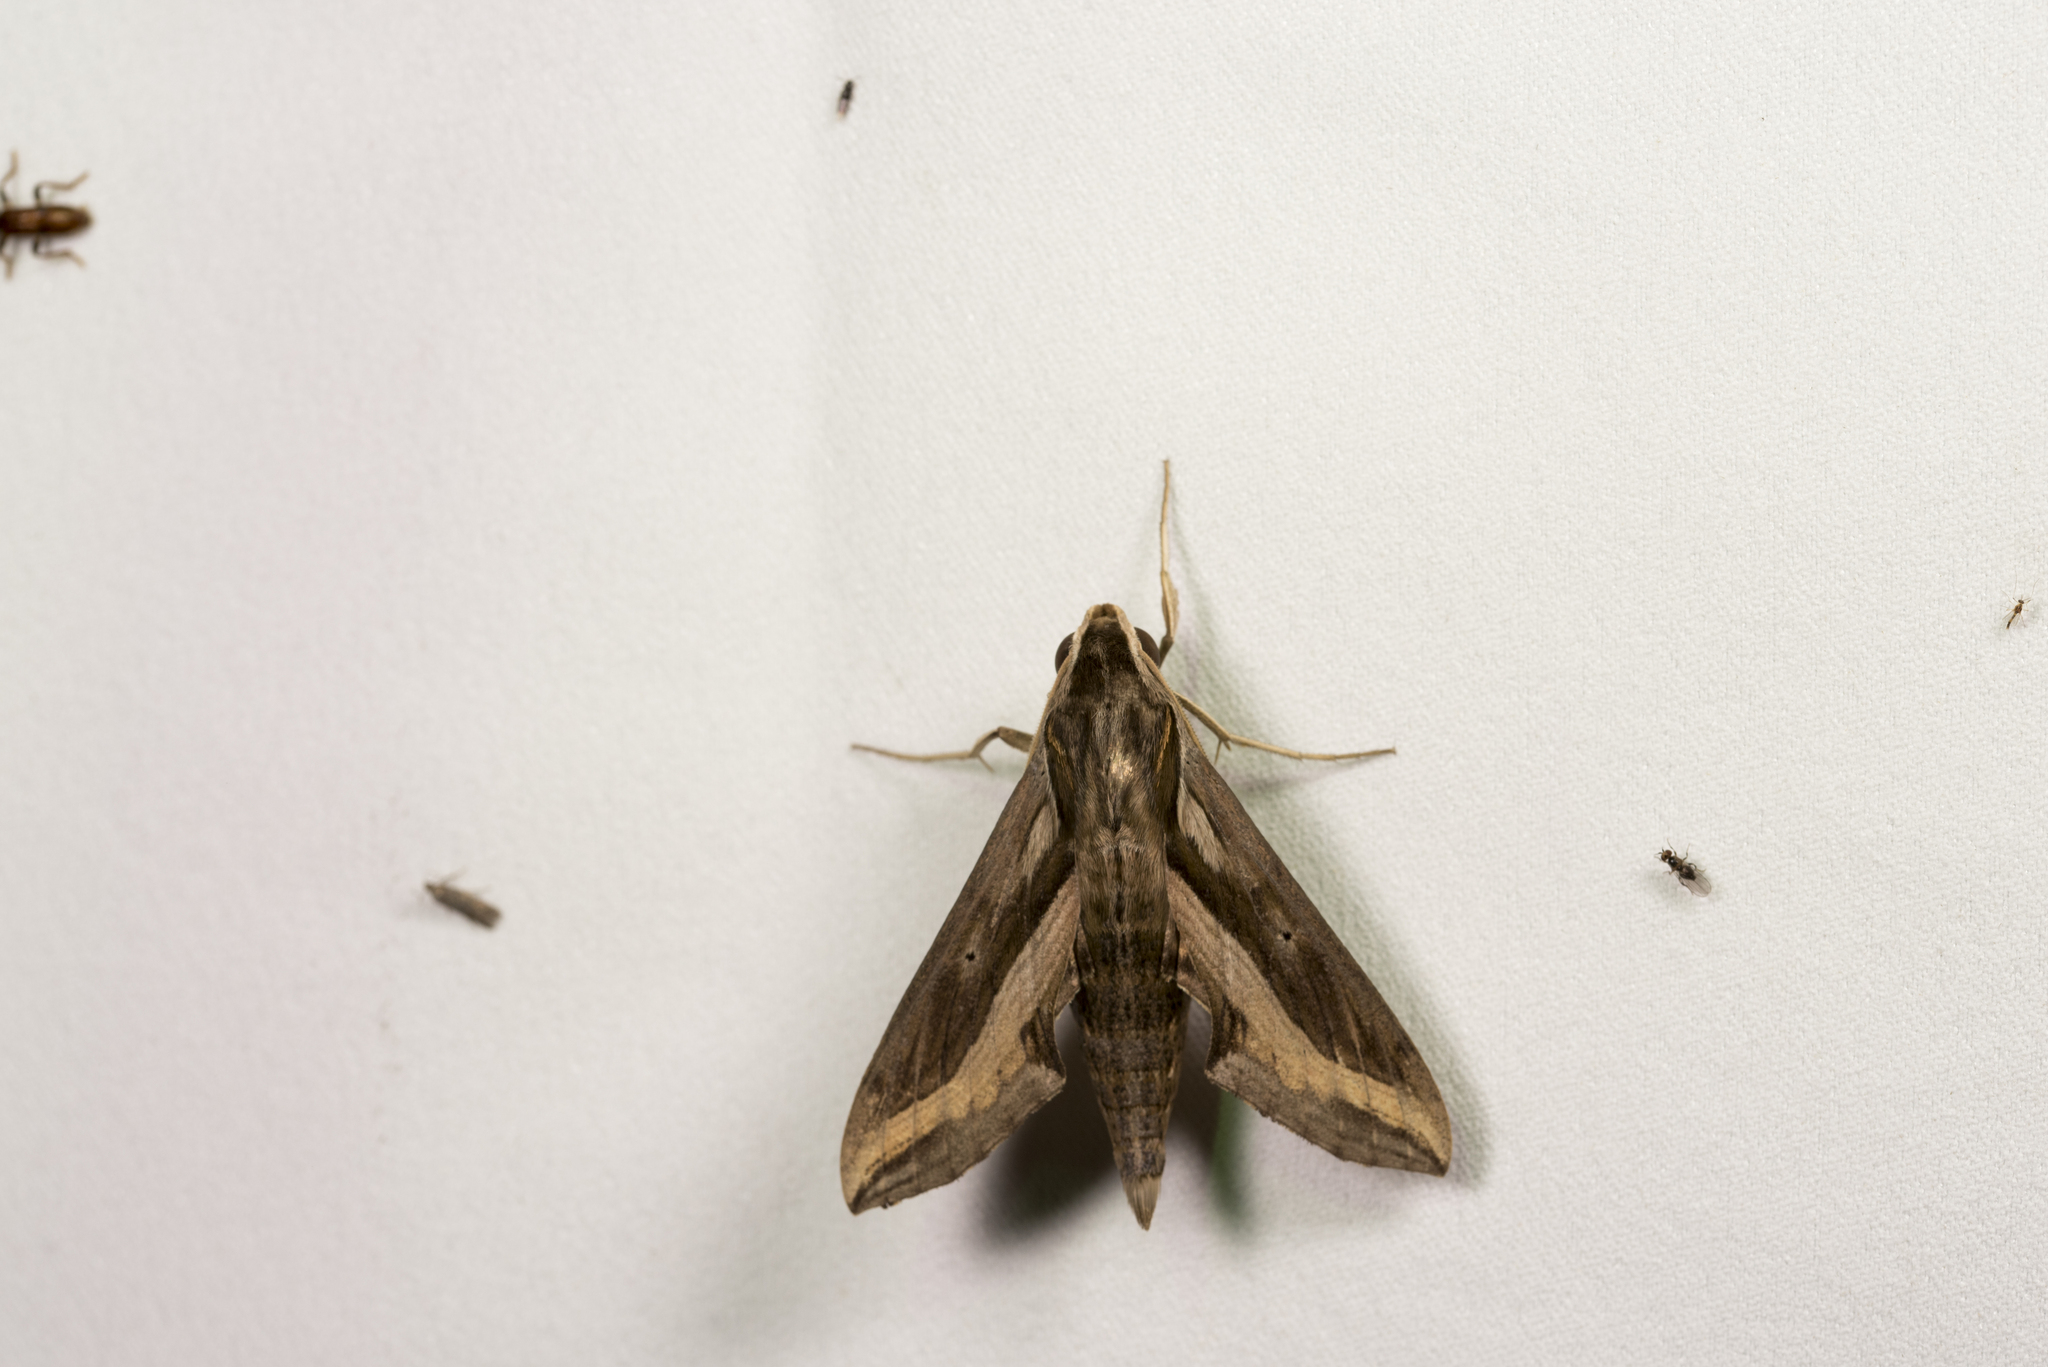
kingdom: Animalia
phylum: Arthropoda
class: Insecta
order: Lepidoptera
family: Sphingidae
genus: Hippotion
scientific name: Hippotion velox
